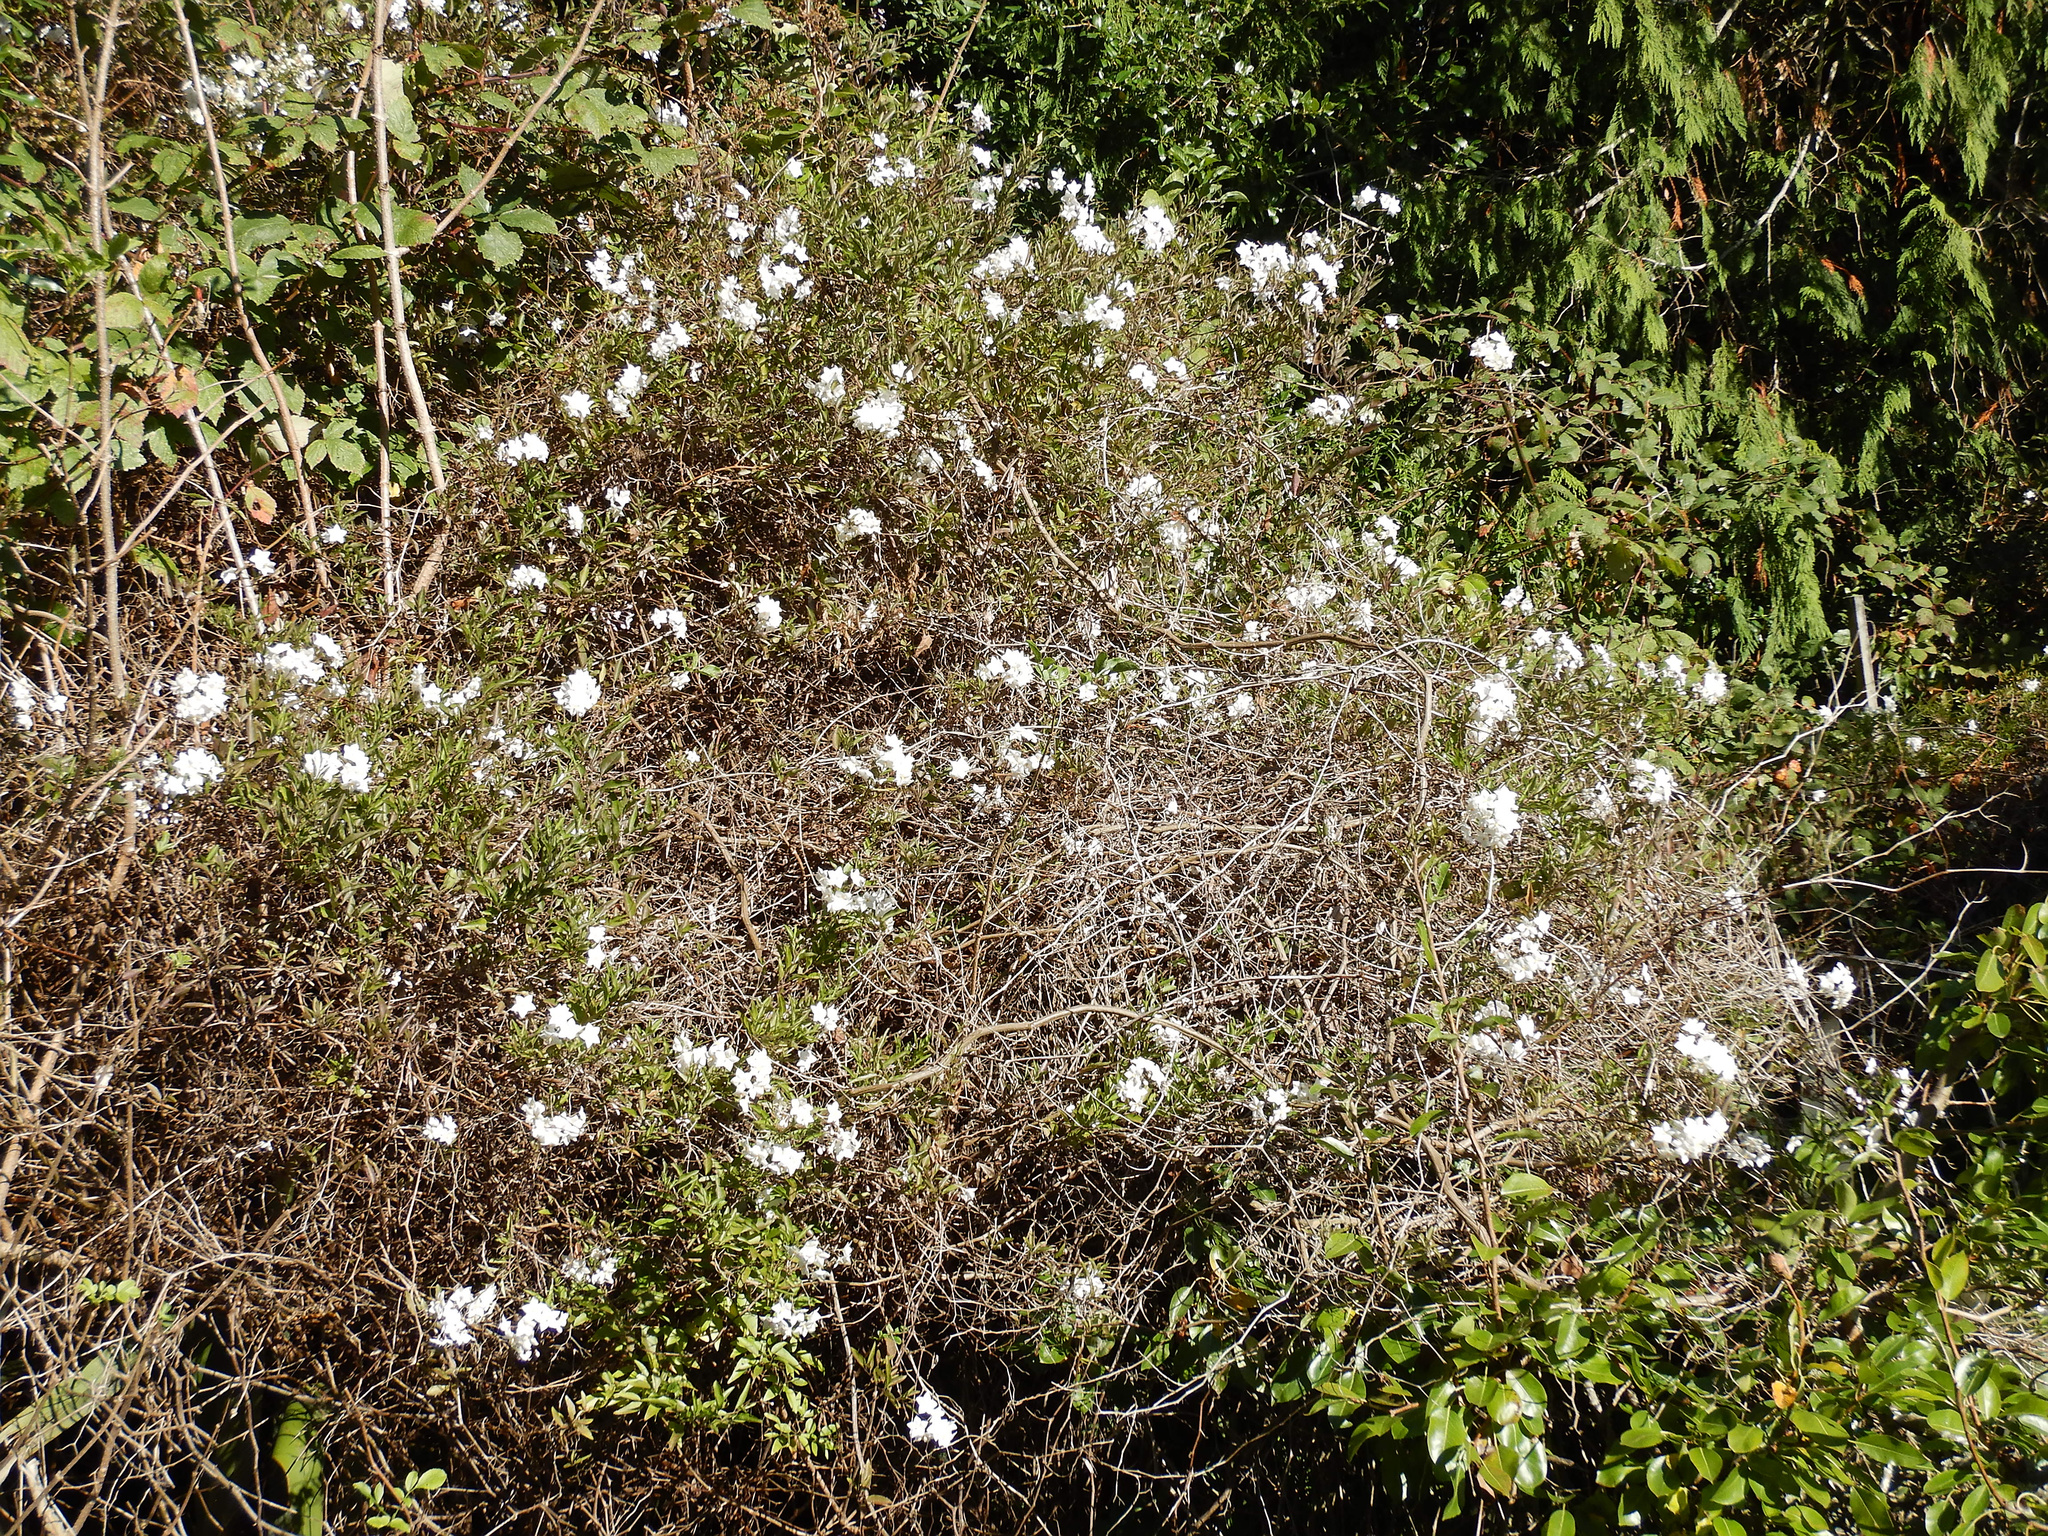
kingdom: Plantae
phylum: Tracheophyta
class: Magnoliopsida
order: Solanales
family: Solanaceae
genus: Solanum
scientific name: Solanum laxum
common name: Nightshade
